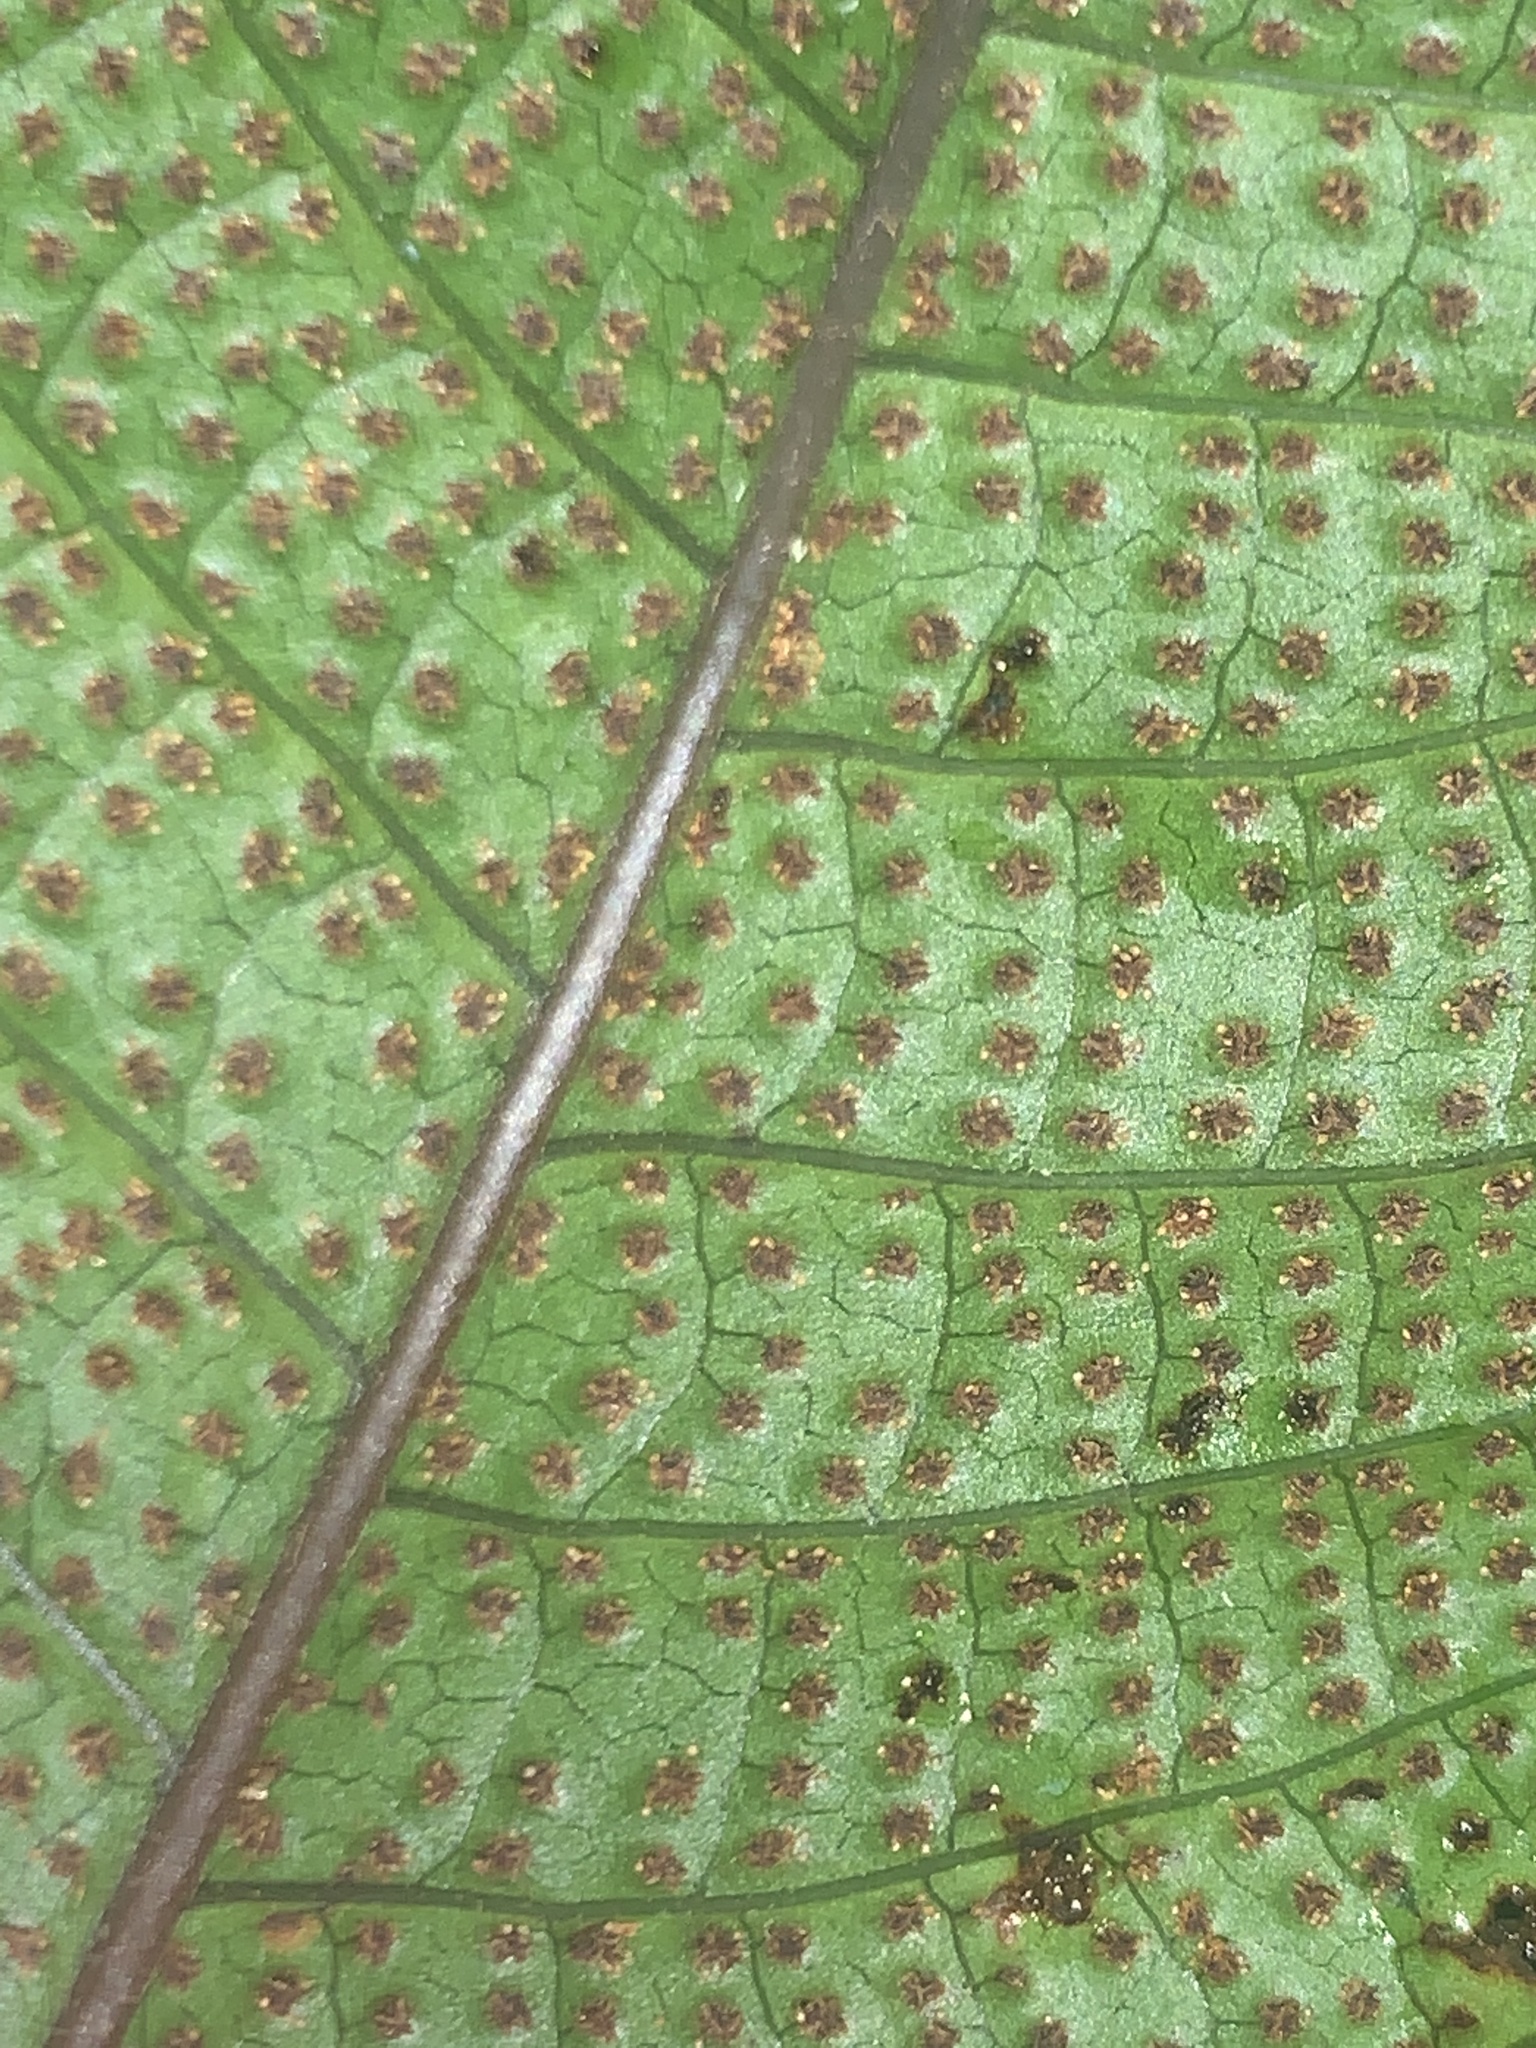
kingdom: Plantae
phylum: Tracheophyta
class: Polypodiopsida
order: Polypodiales
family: Tectariaceae
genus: Tectaria
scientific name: Tectaria singaporiana
